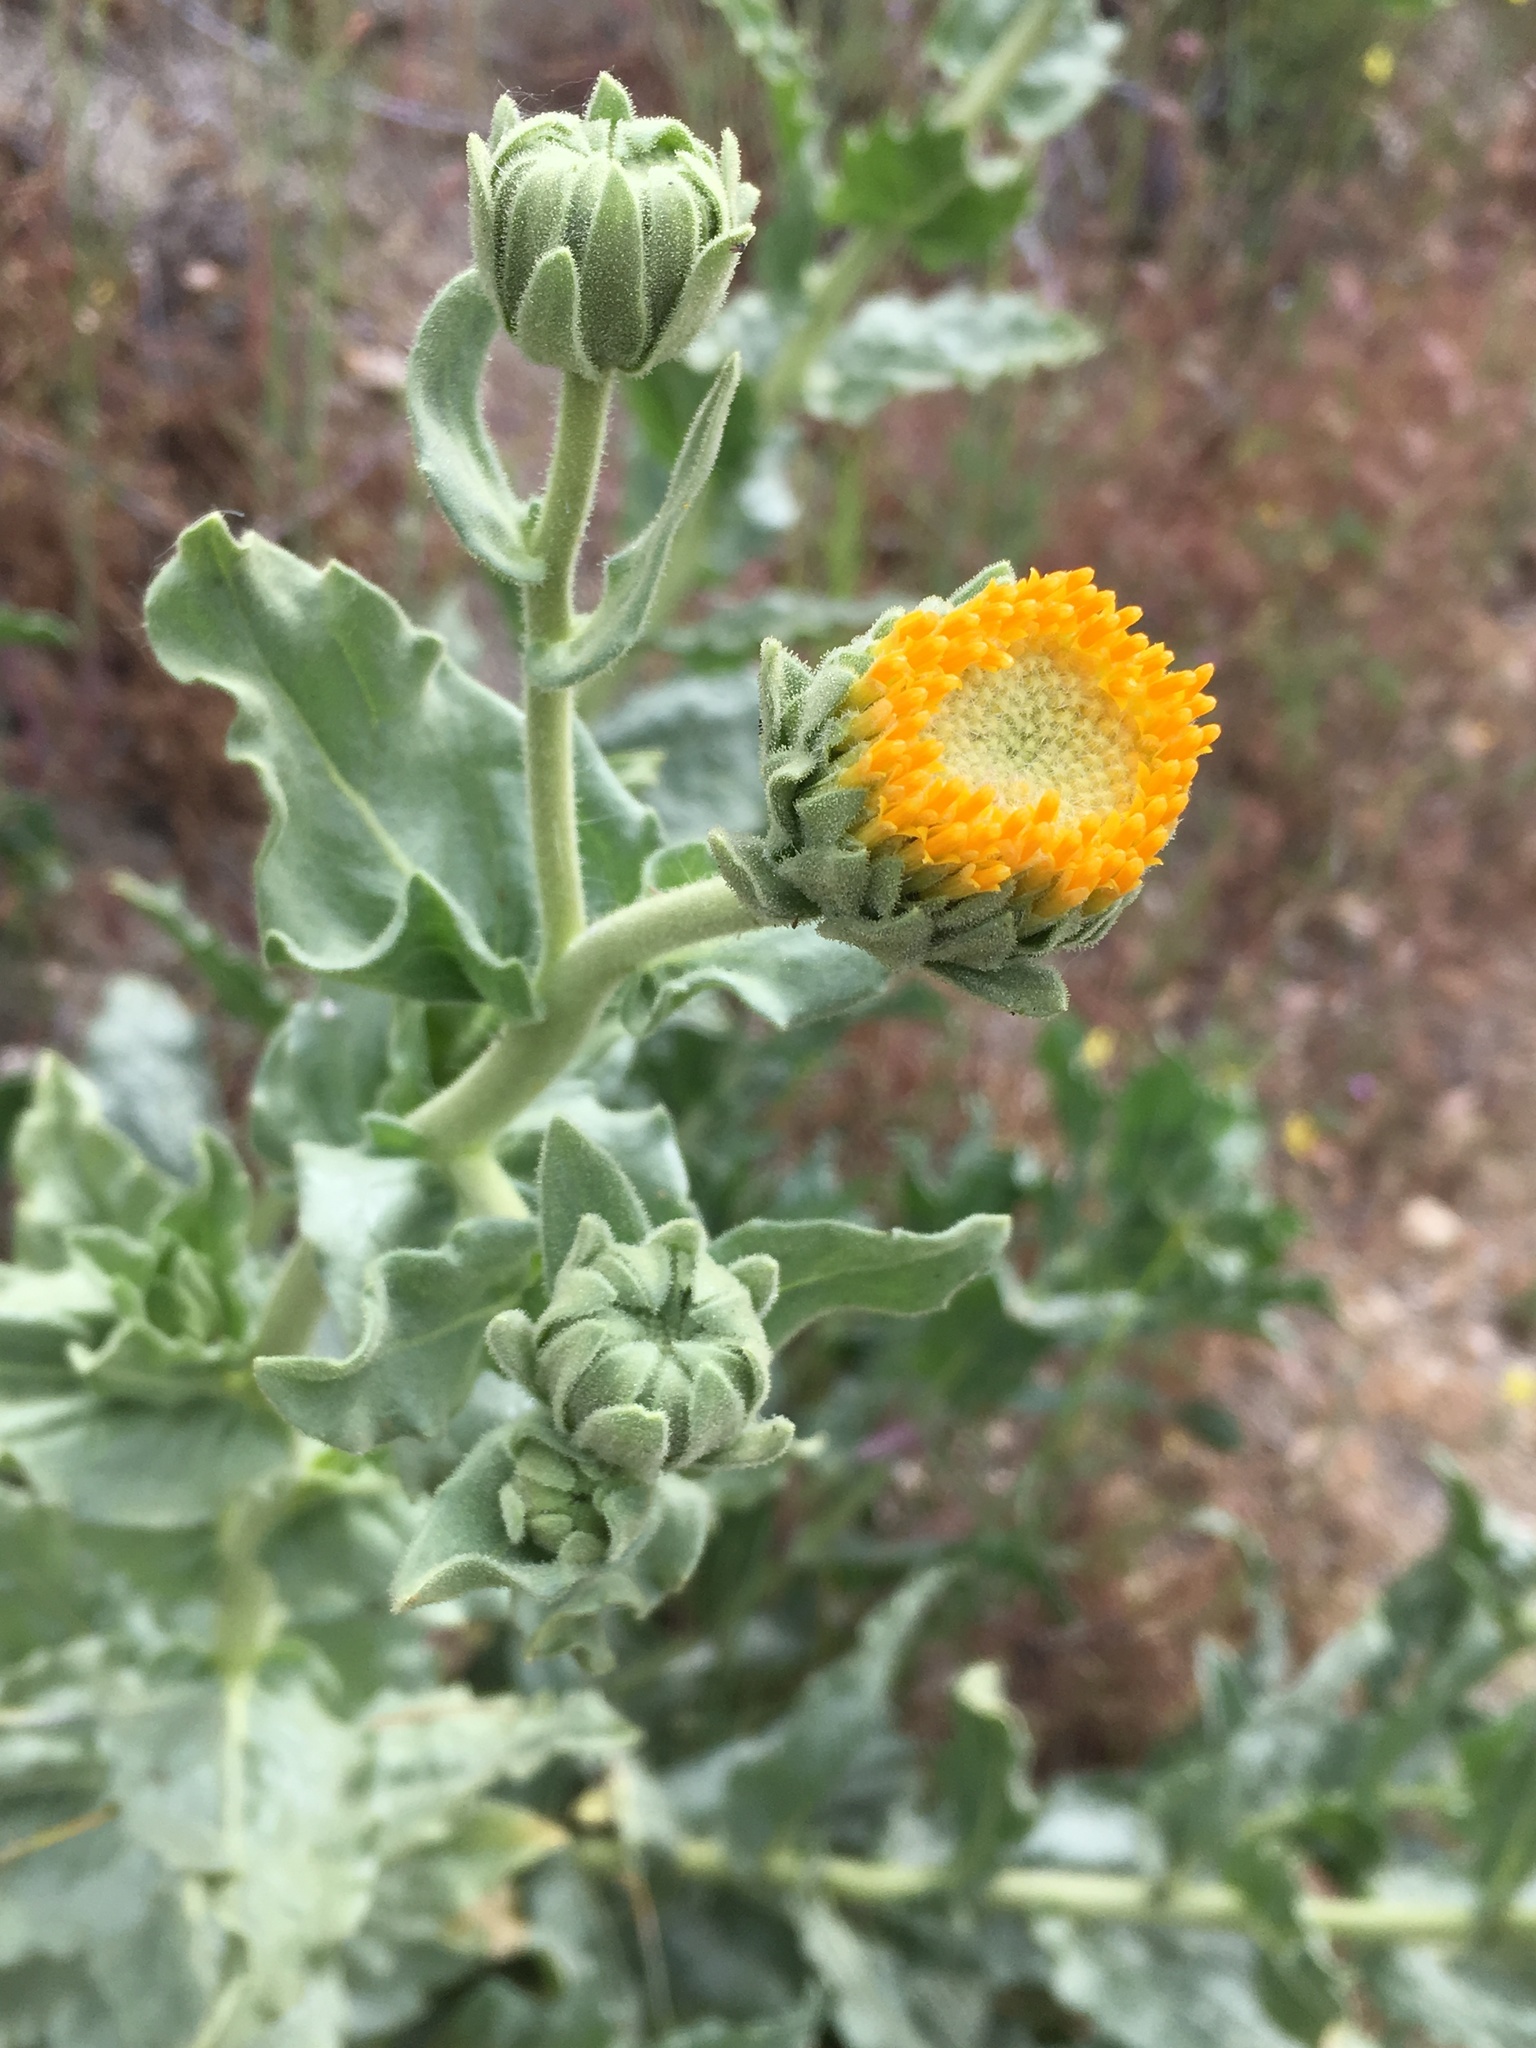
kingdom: Plantae
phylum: Tracheophyta
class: Magnoliopsida
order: Asterales
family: Asteraceae
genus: Geraea
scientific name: Geraea viscida
